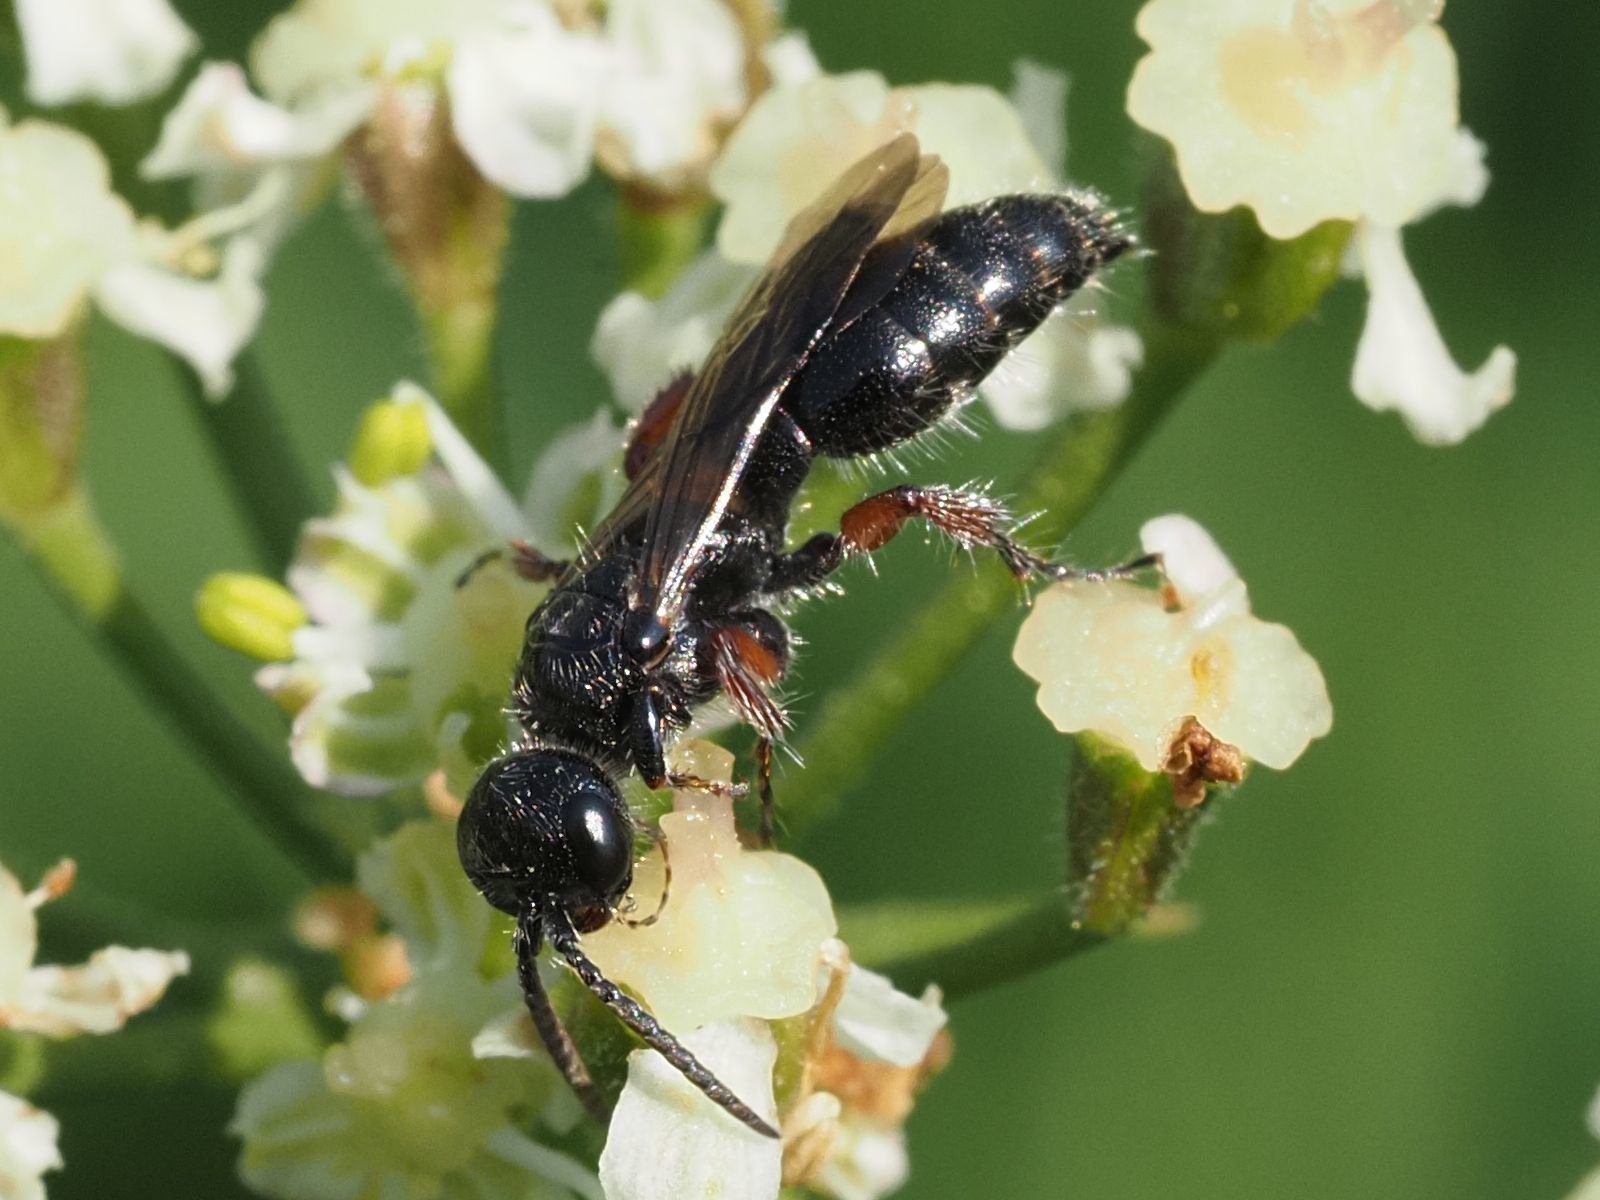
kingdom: Animalia
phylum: Arthropoda
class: Insecta
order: Hymenoptera
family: Tiphiidae
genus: Tiphia
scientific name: Tiphia femorata
